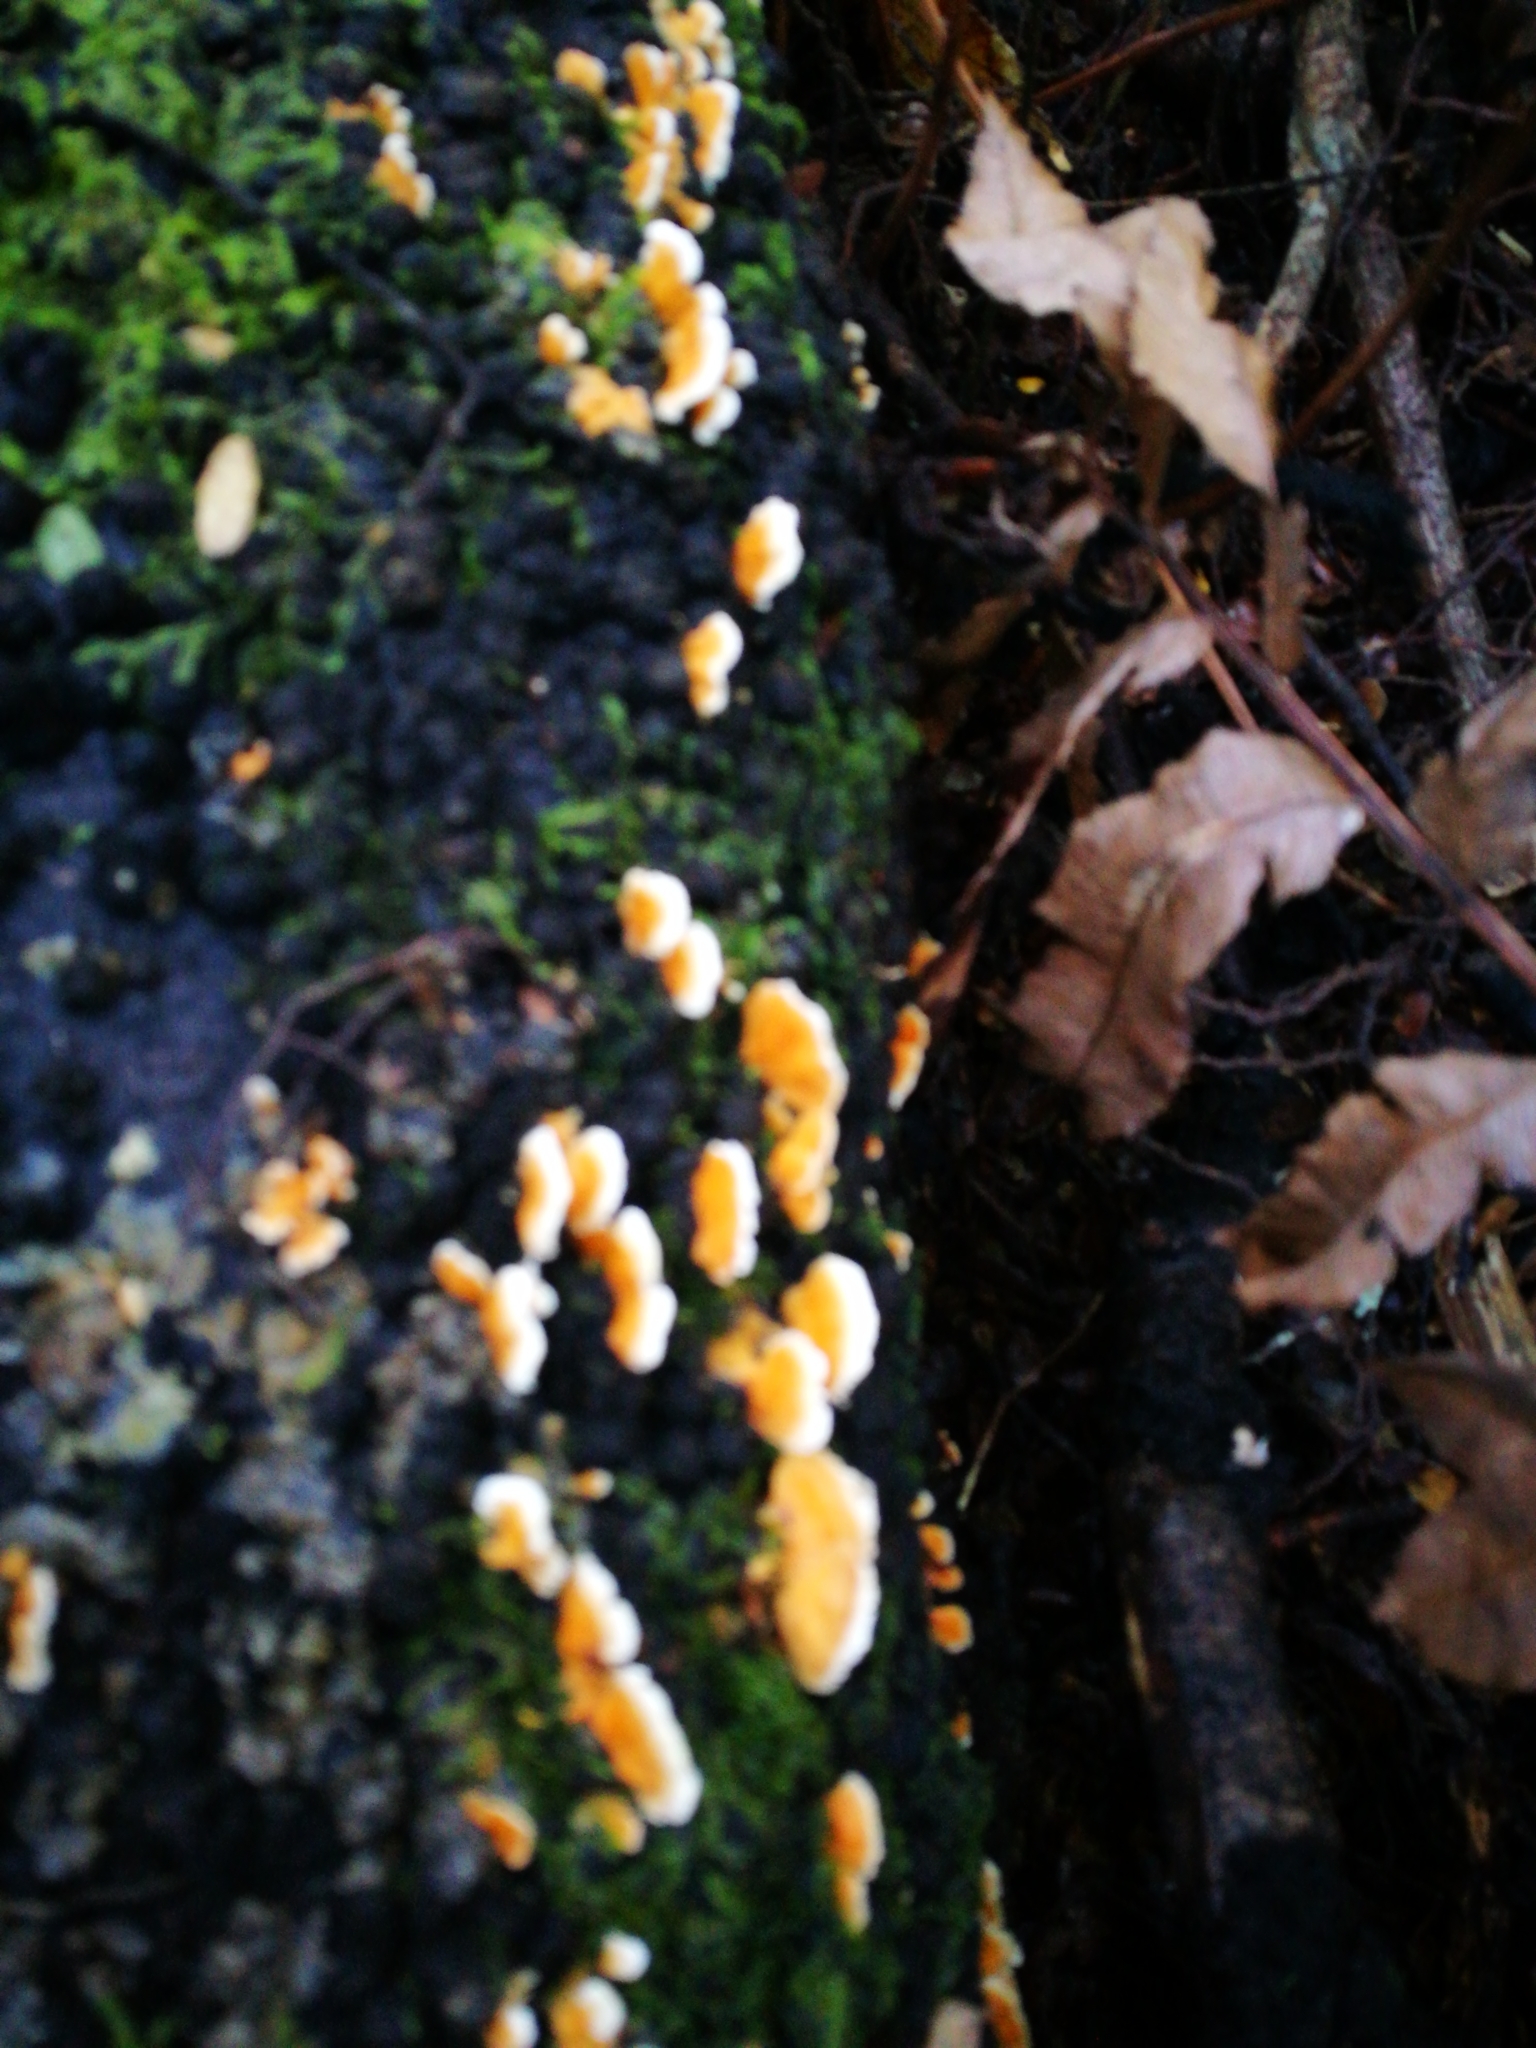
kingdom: Fungi
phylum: Basidiomycota
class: Agaricomycetes
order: Polyporales
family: Cerrenaceae
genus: Cerrena
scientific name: Cerrena zonata
